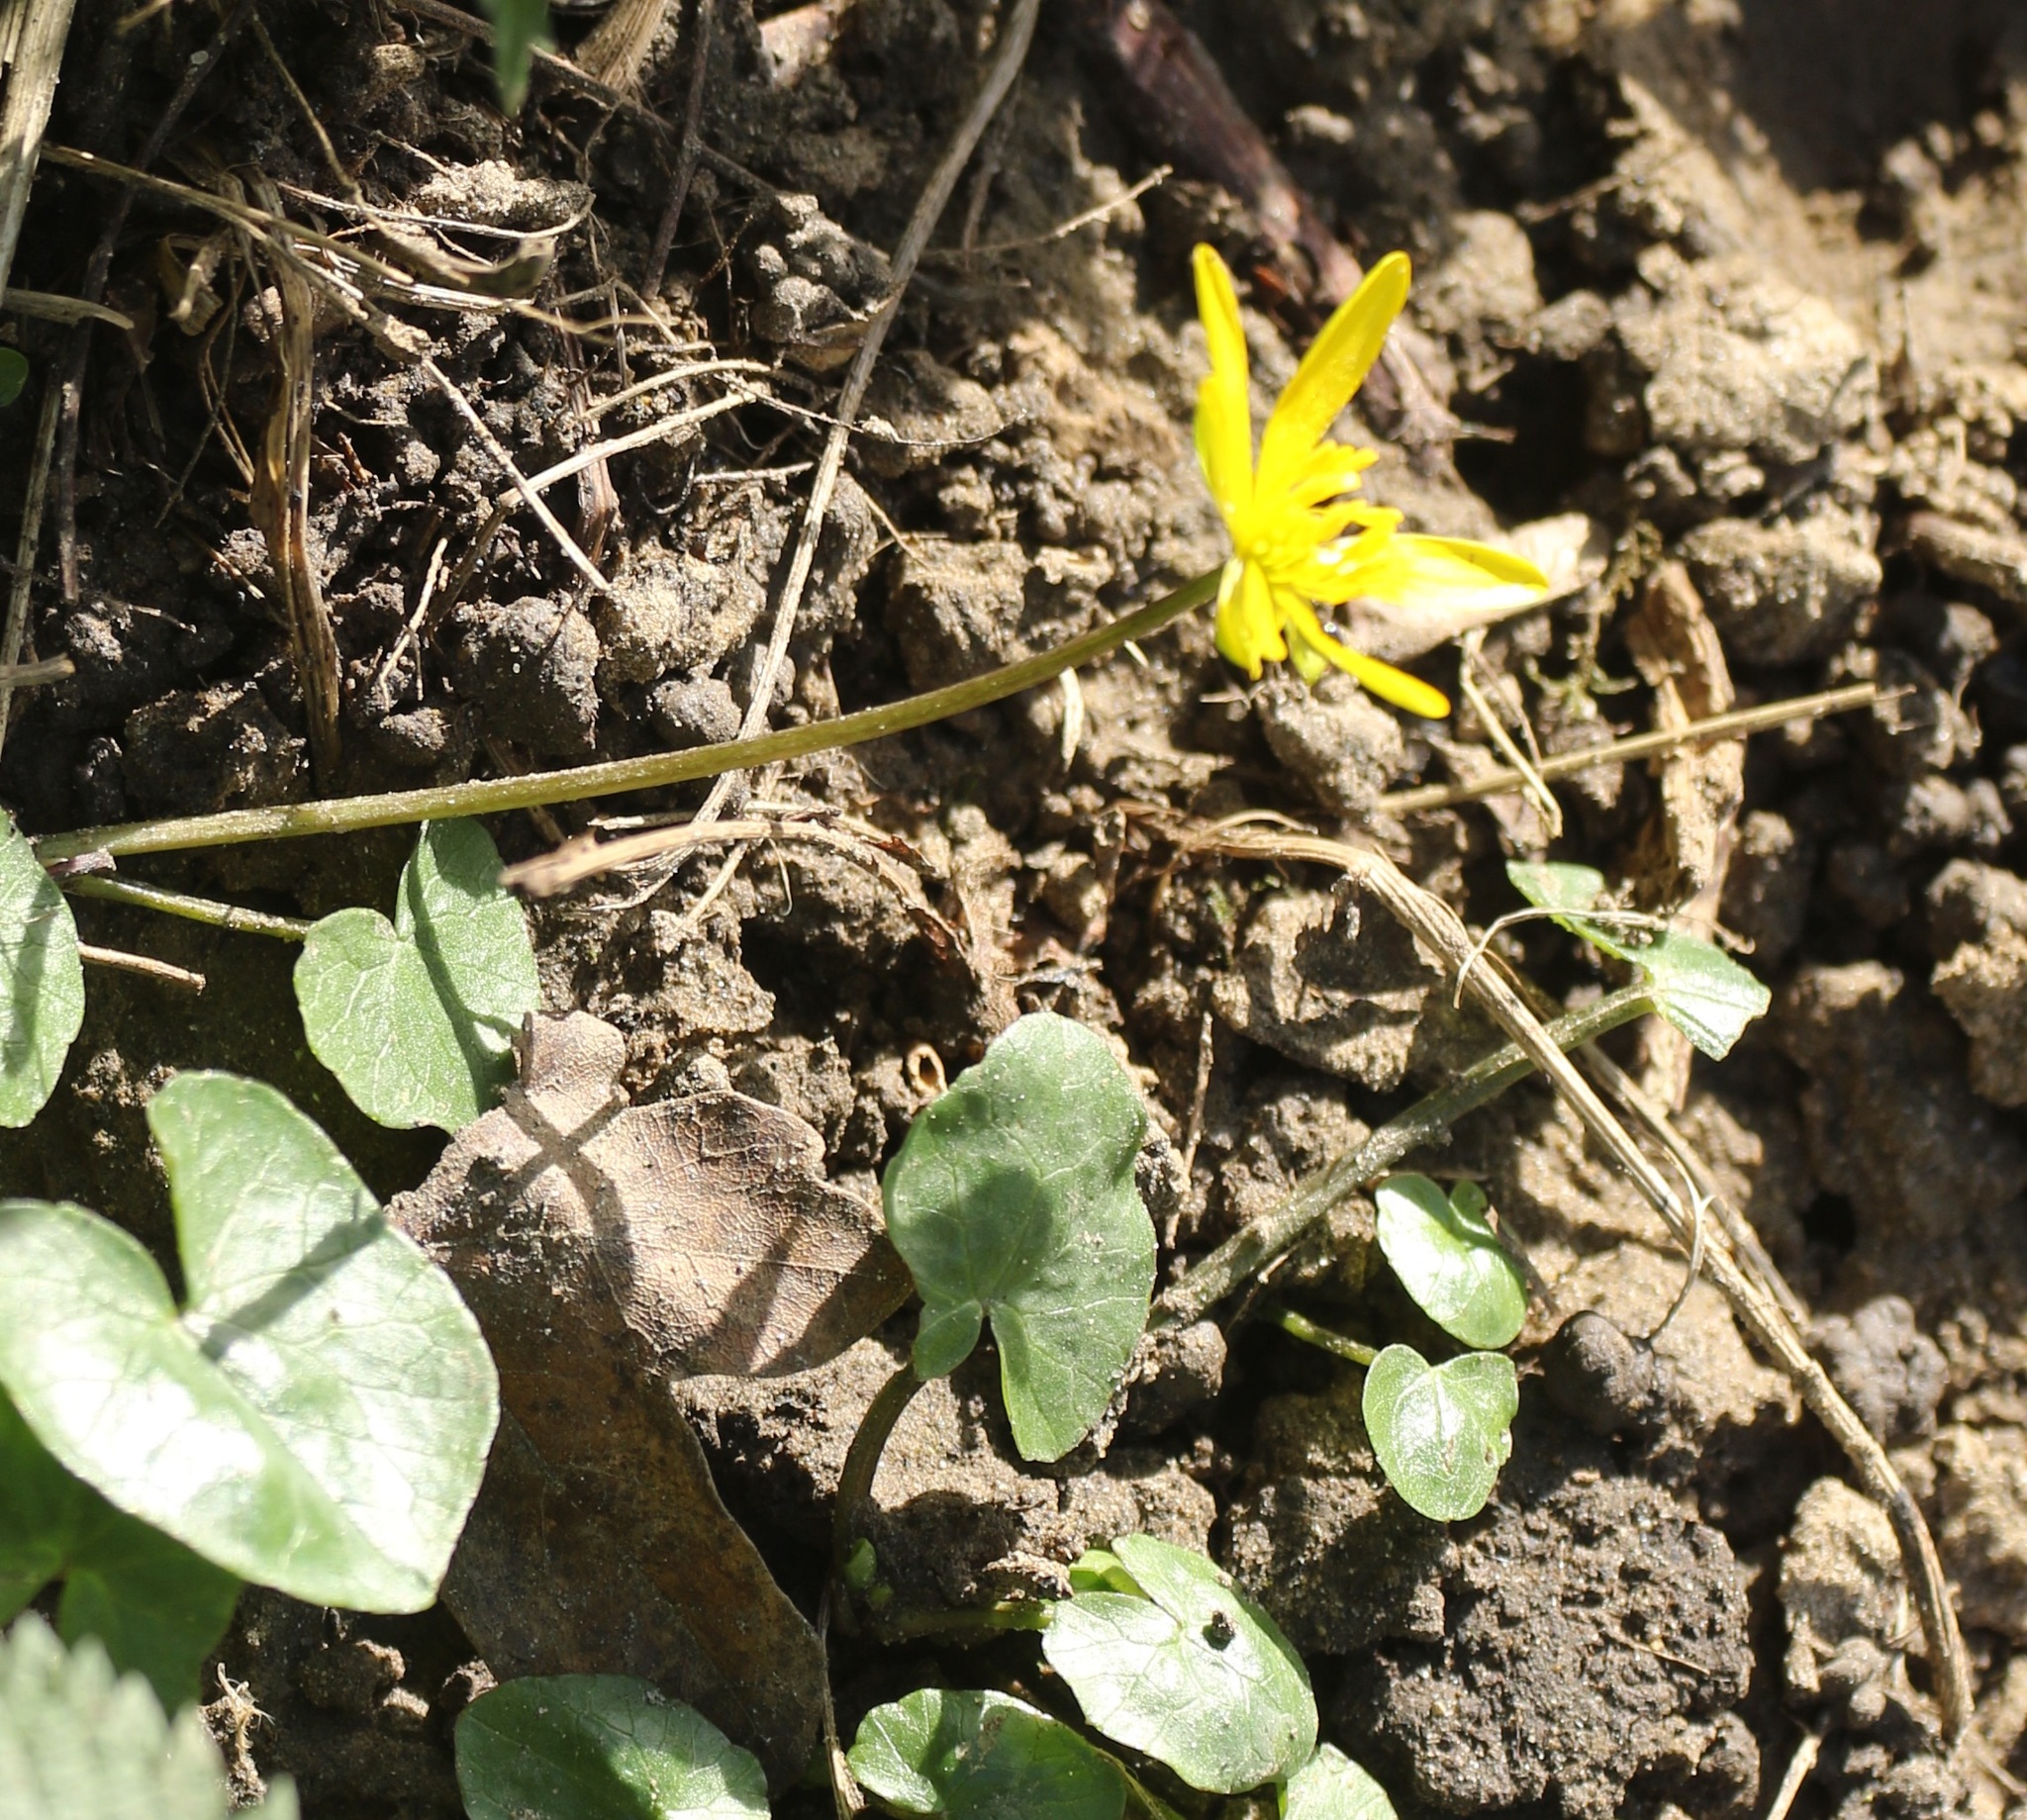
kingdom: Plantae
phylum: Tracheophyta
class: Magnoliopsida
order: Ranunculales
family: Ranunculaceae
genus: Ficaria
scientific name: Ficaria verna
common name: Lesser celandine
